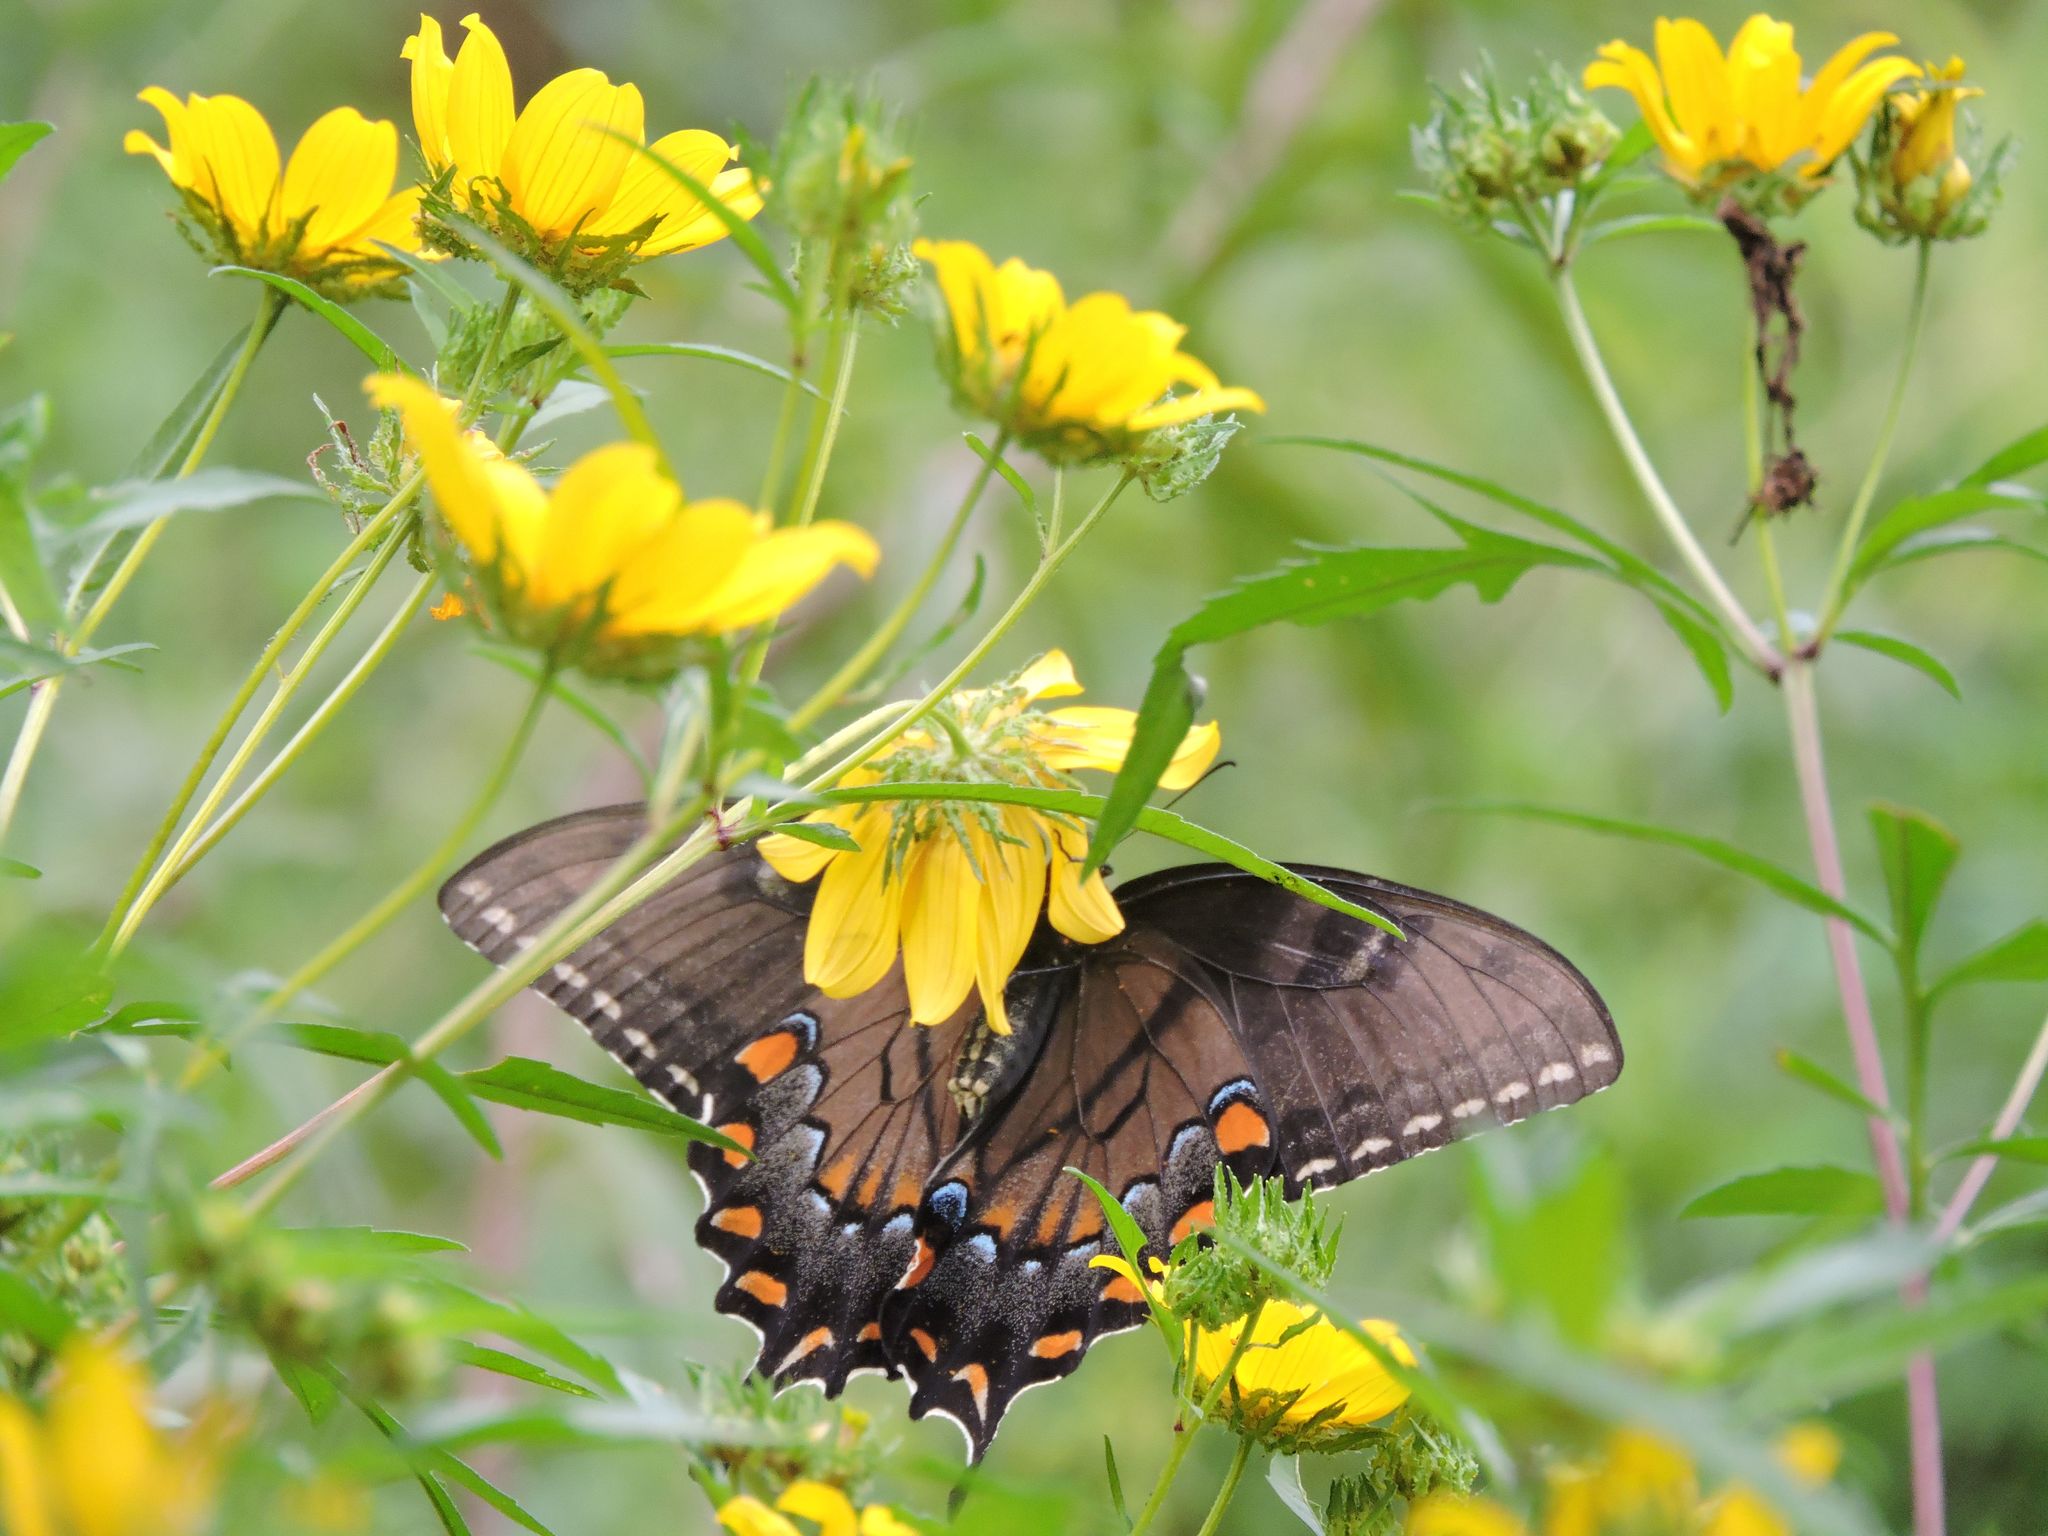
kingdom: Animalia
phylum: Arthropoda
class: Insecta
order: Lepidoptera
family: Papilionidae
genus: Papilio
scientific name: Papilio glaucus
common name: Tiger swallowtail
